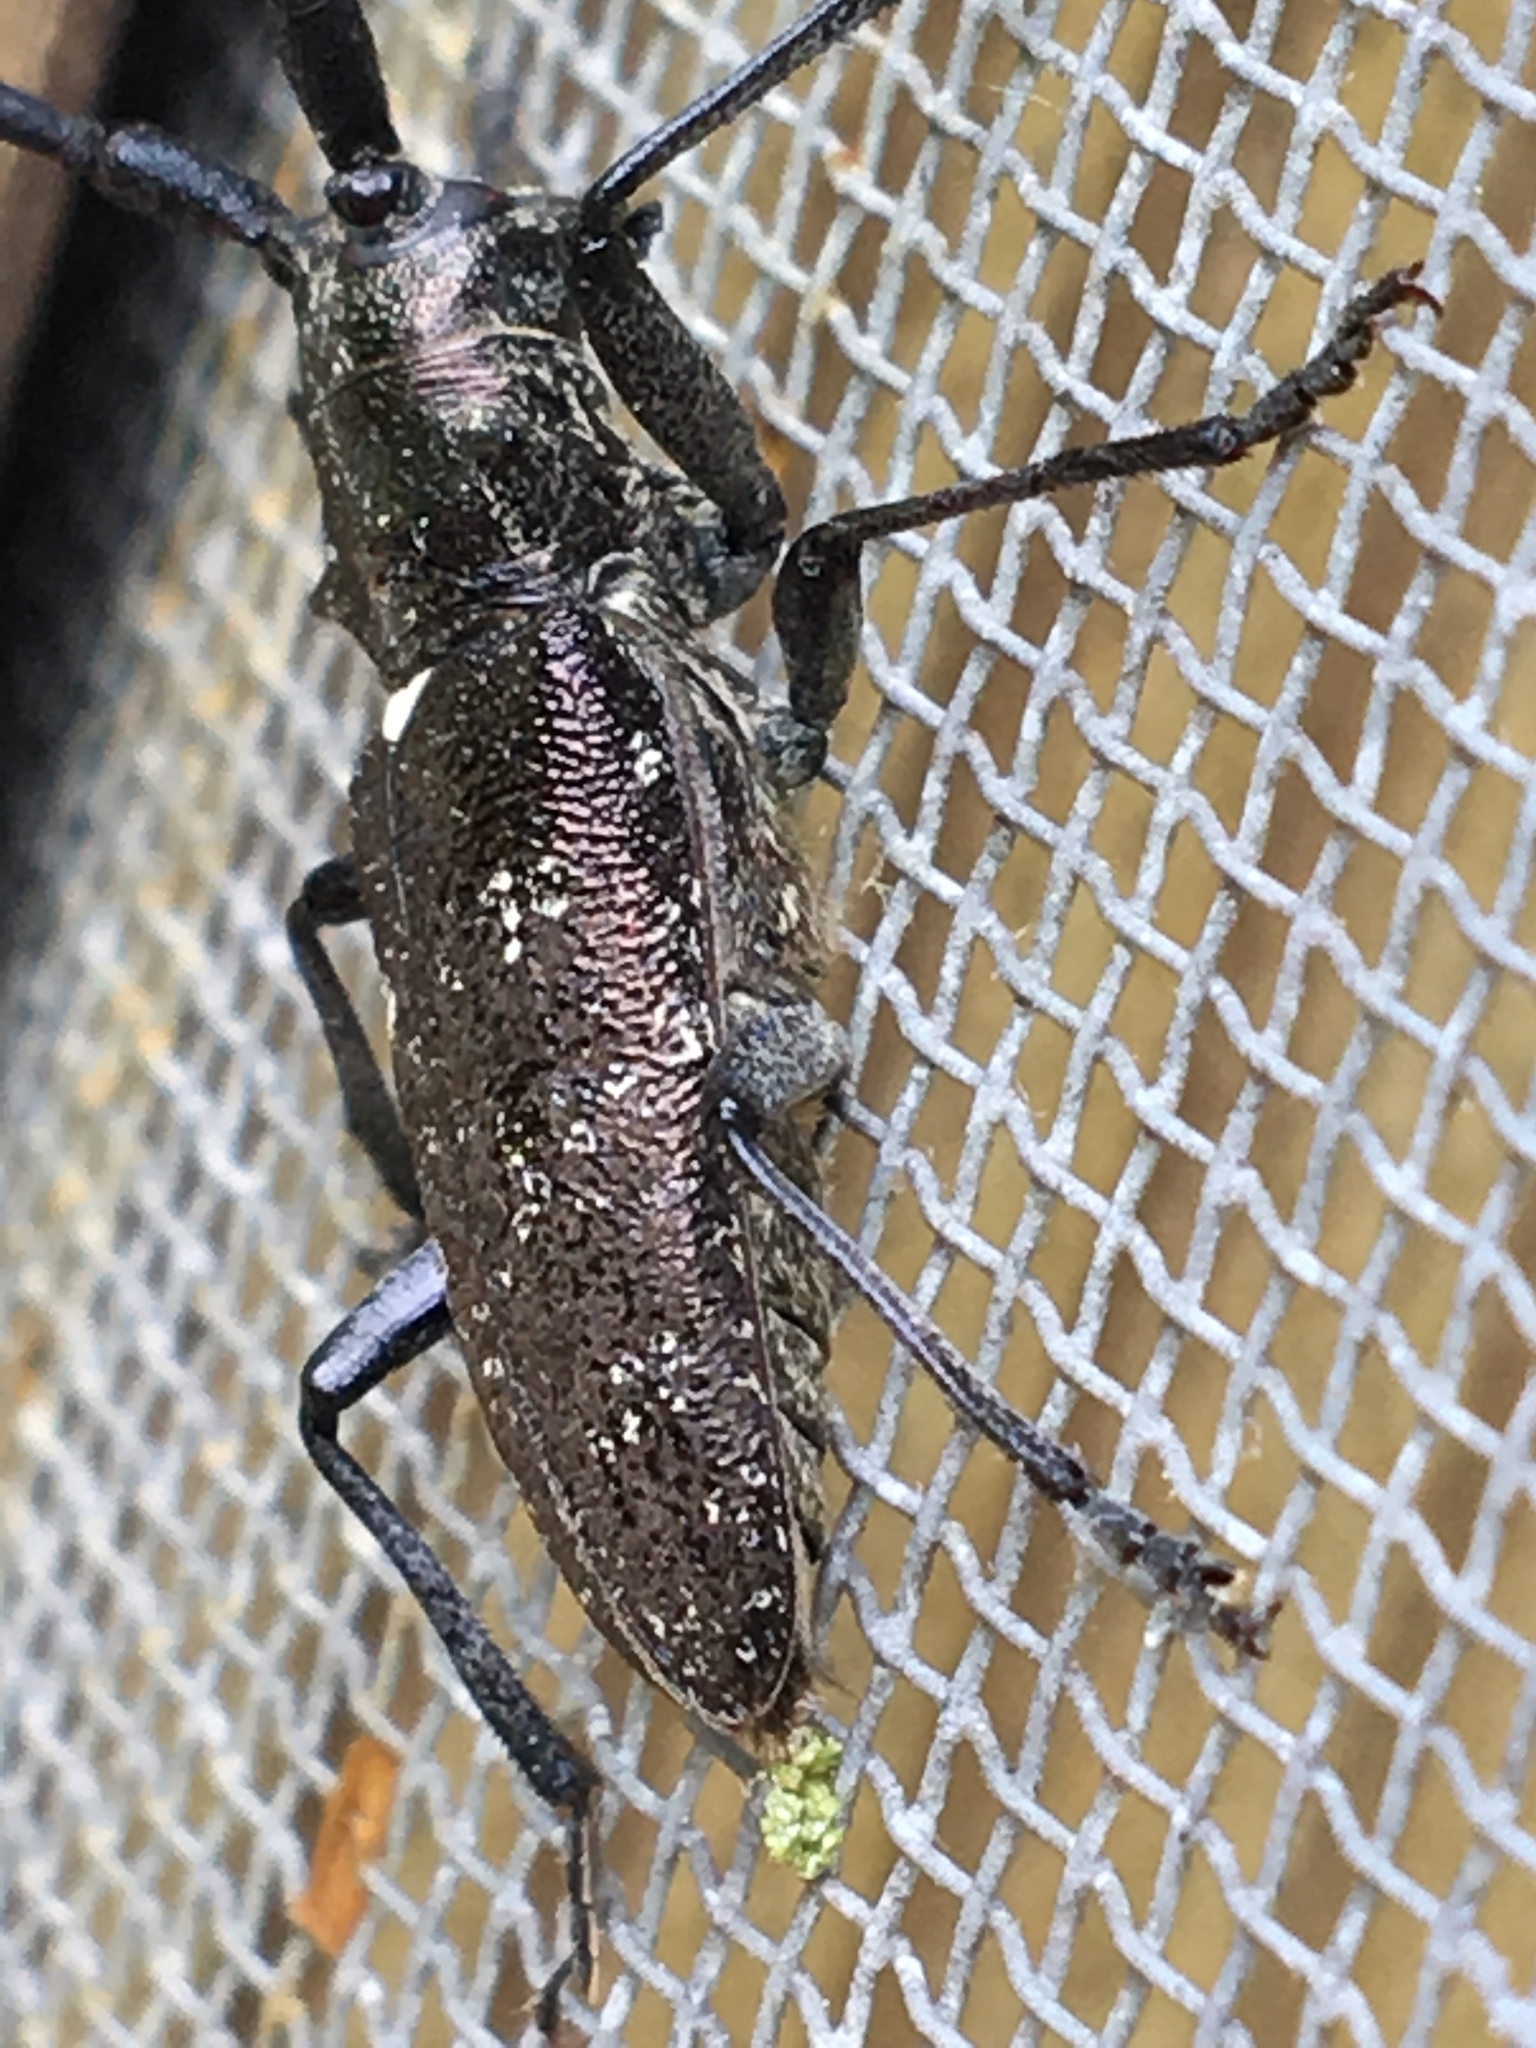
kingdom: Animalia
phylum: Arthropoda
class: Insecta
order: Coleoptera
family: Cerambycidae
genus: Monochamus
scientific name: Monochamus scutellatus
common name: White-spotted sawyer beetle
